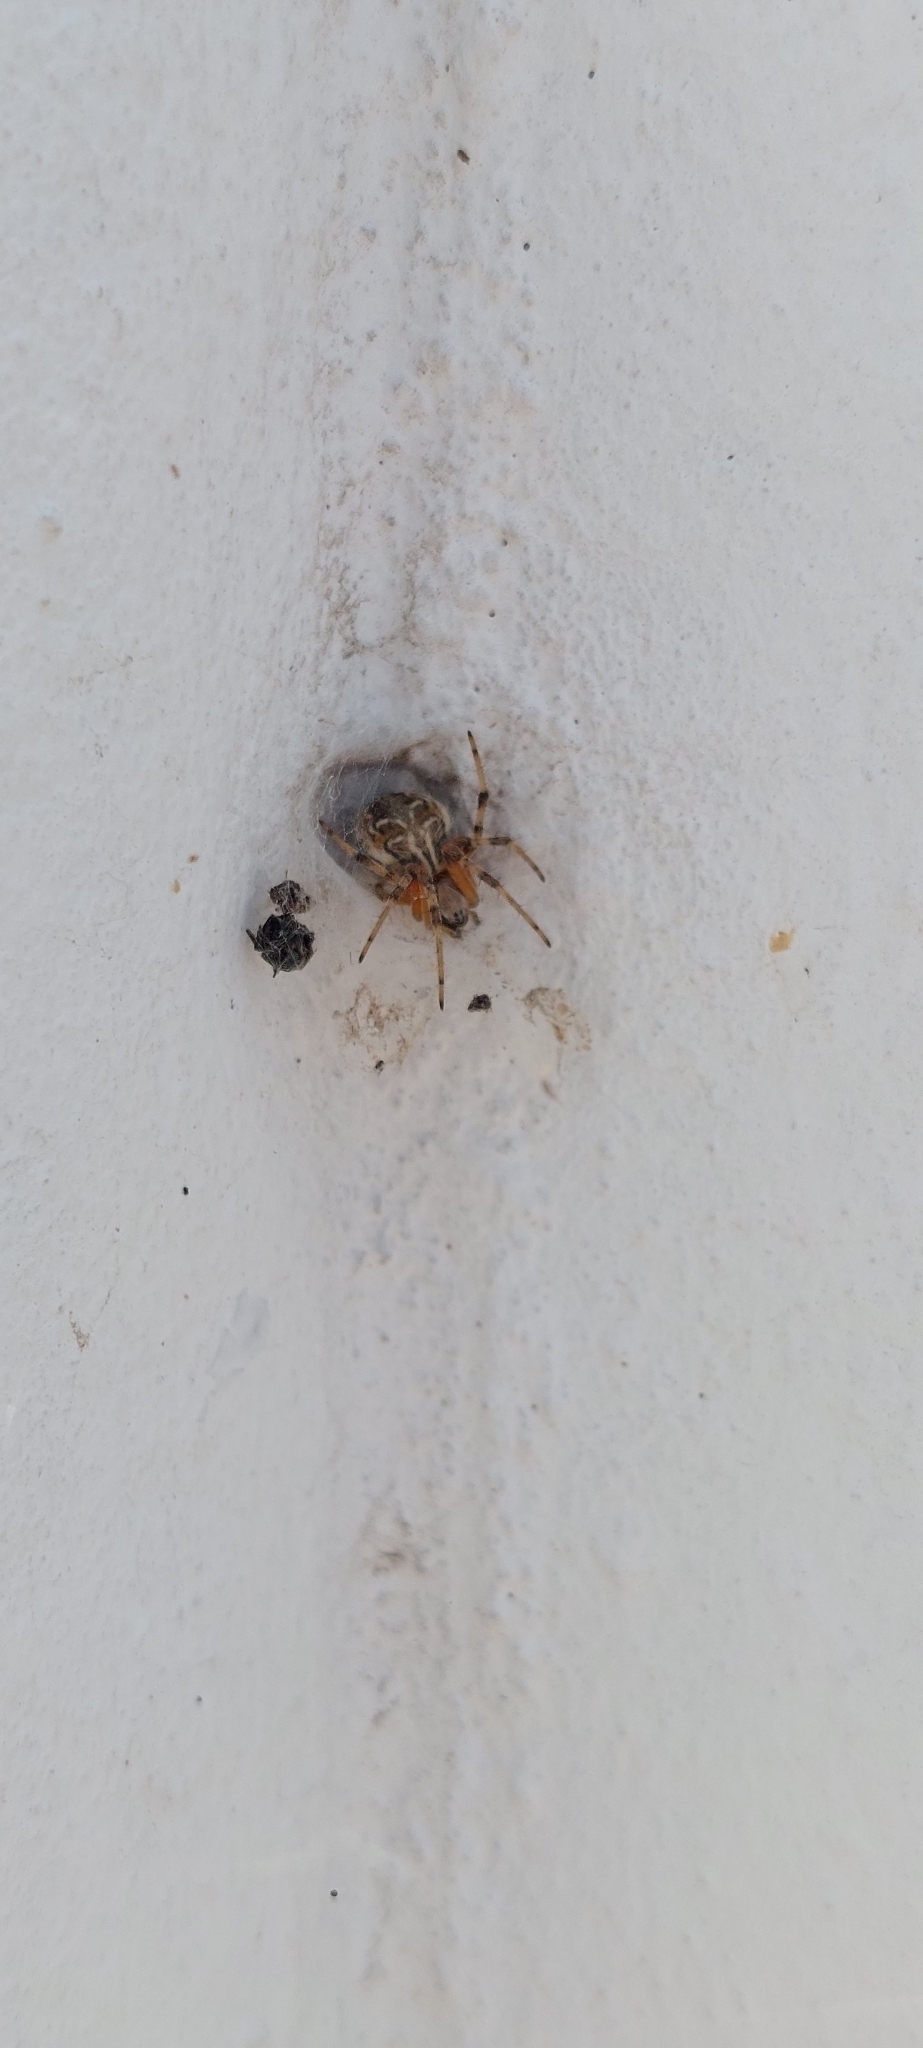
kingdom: Animalia
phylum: Arthropoda
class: Arachnida
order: Araneae
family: Araneidae
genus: Metepeira
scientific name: Metepeira
